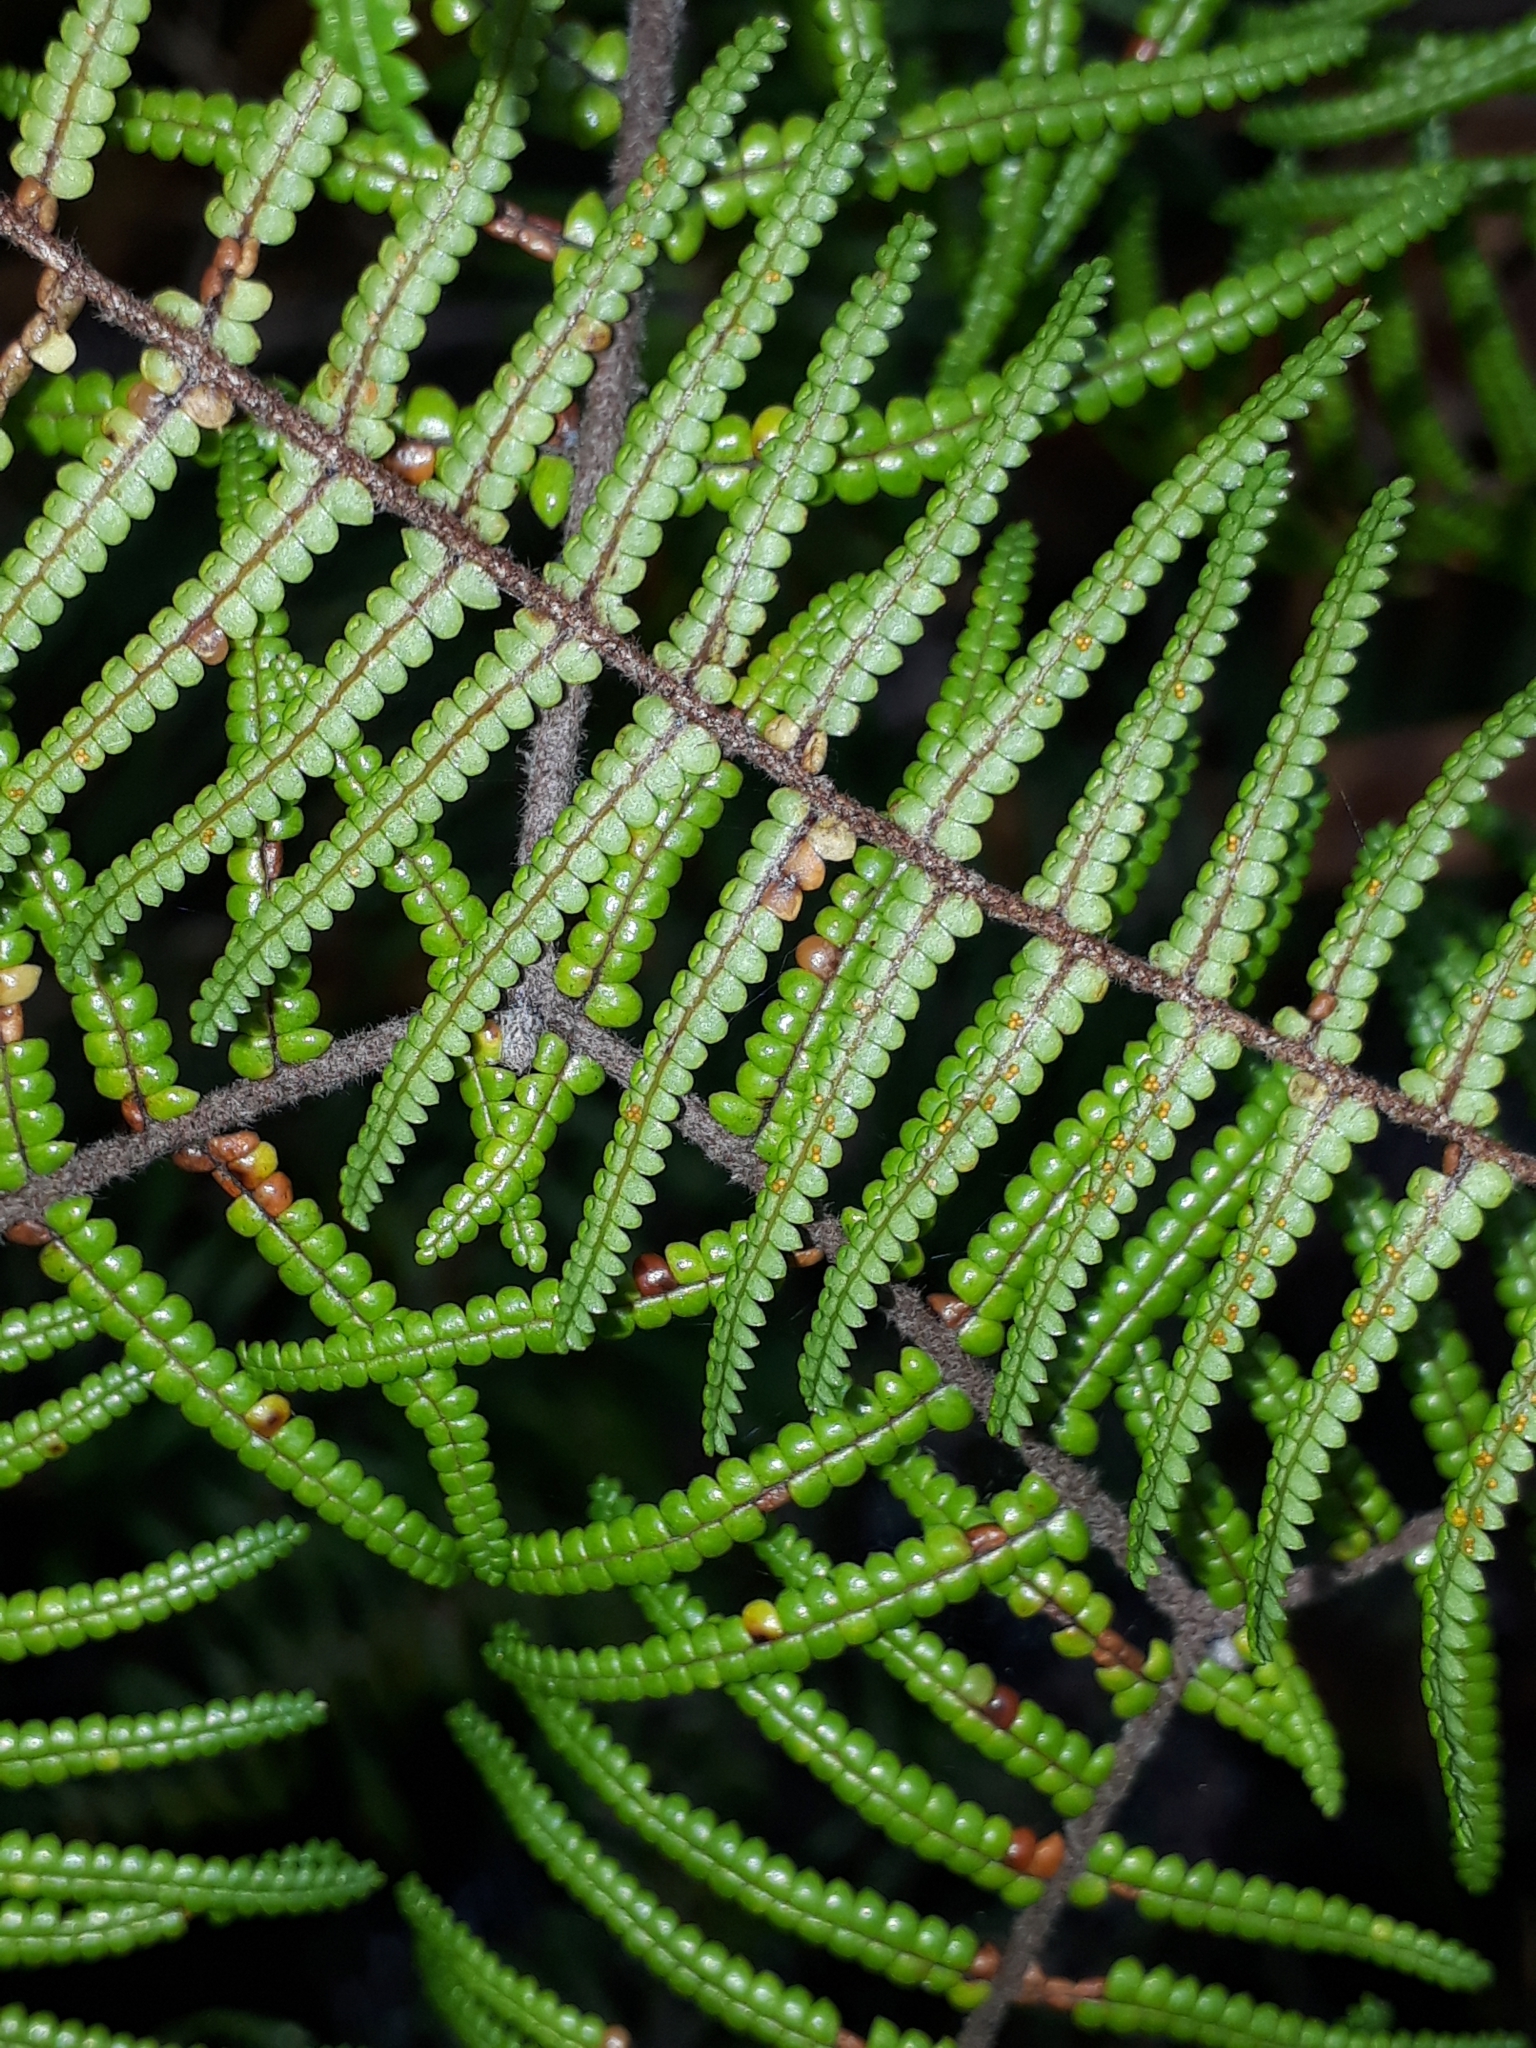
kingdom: Plantae
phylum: Tracheophyta
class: Polypodiopsida
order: Gleicheniales
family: Gleicheniaceae
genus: Gleichenia
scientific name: Gleichenia microphylla
